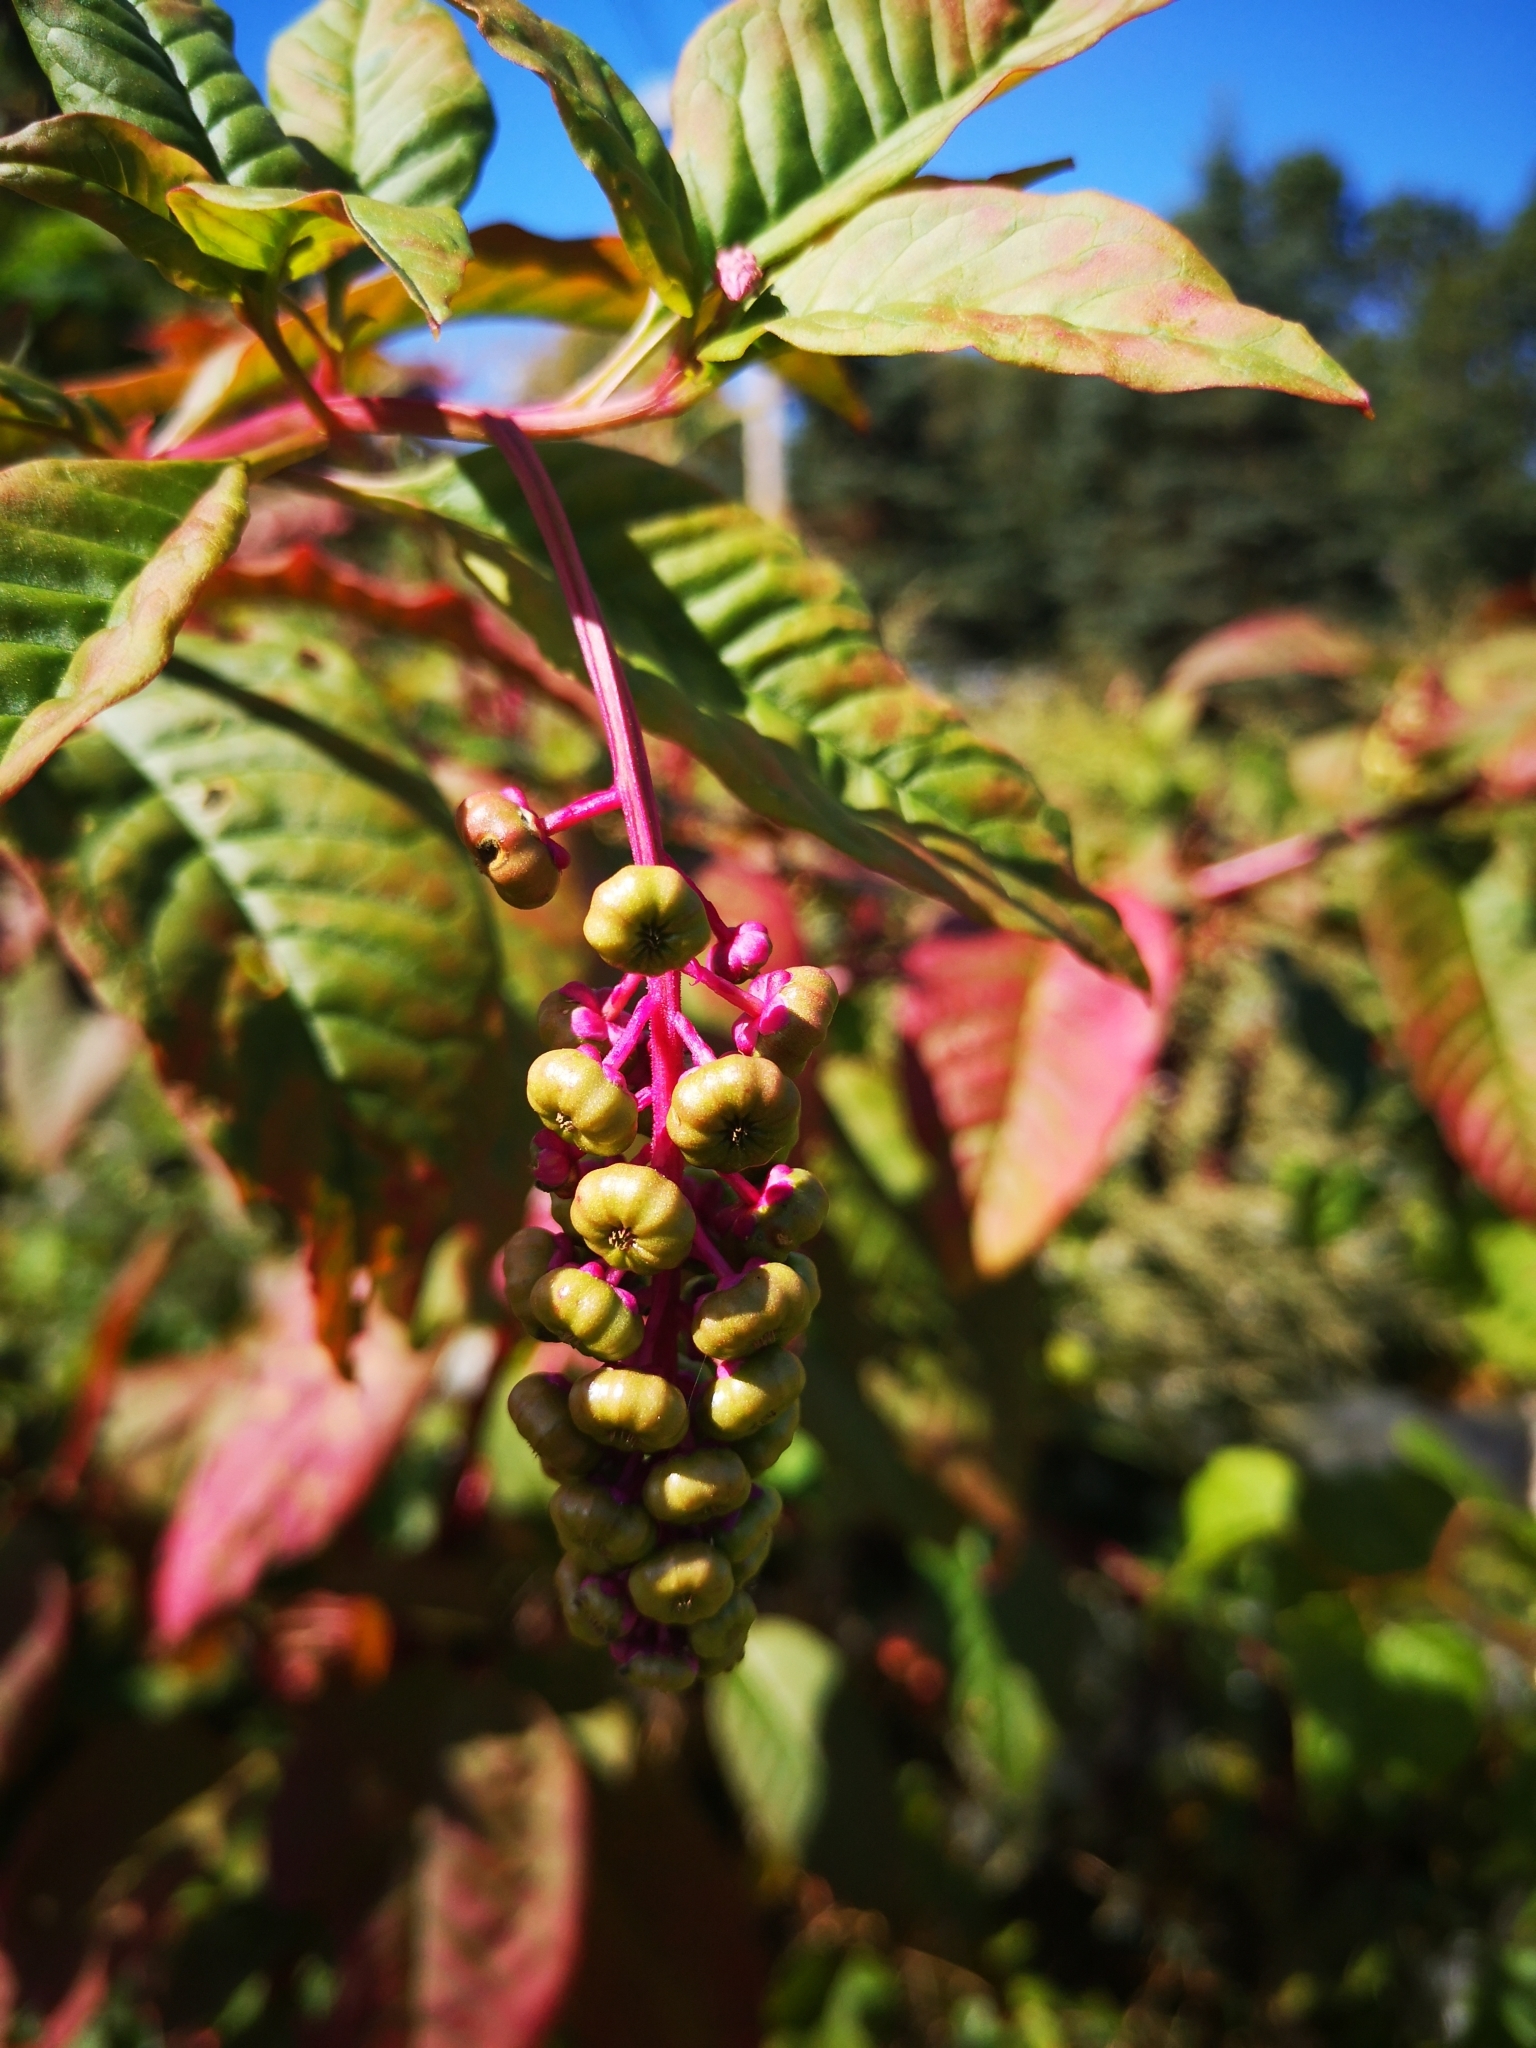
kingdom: Plantae
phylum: Tracheophyta
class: Magnoliopsida
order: Caryophyllales
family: Phytolaccaceae
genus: Phytolacca
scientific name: Phytolacca americana
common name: American pokeweed
